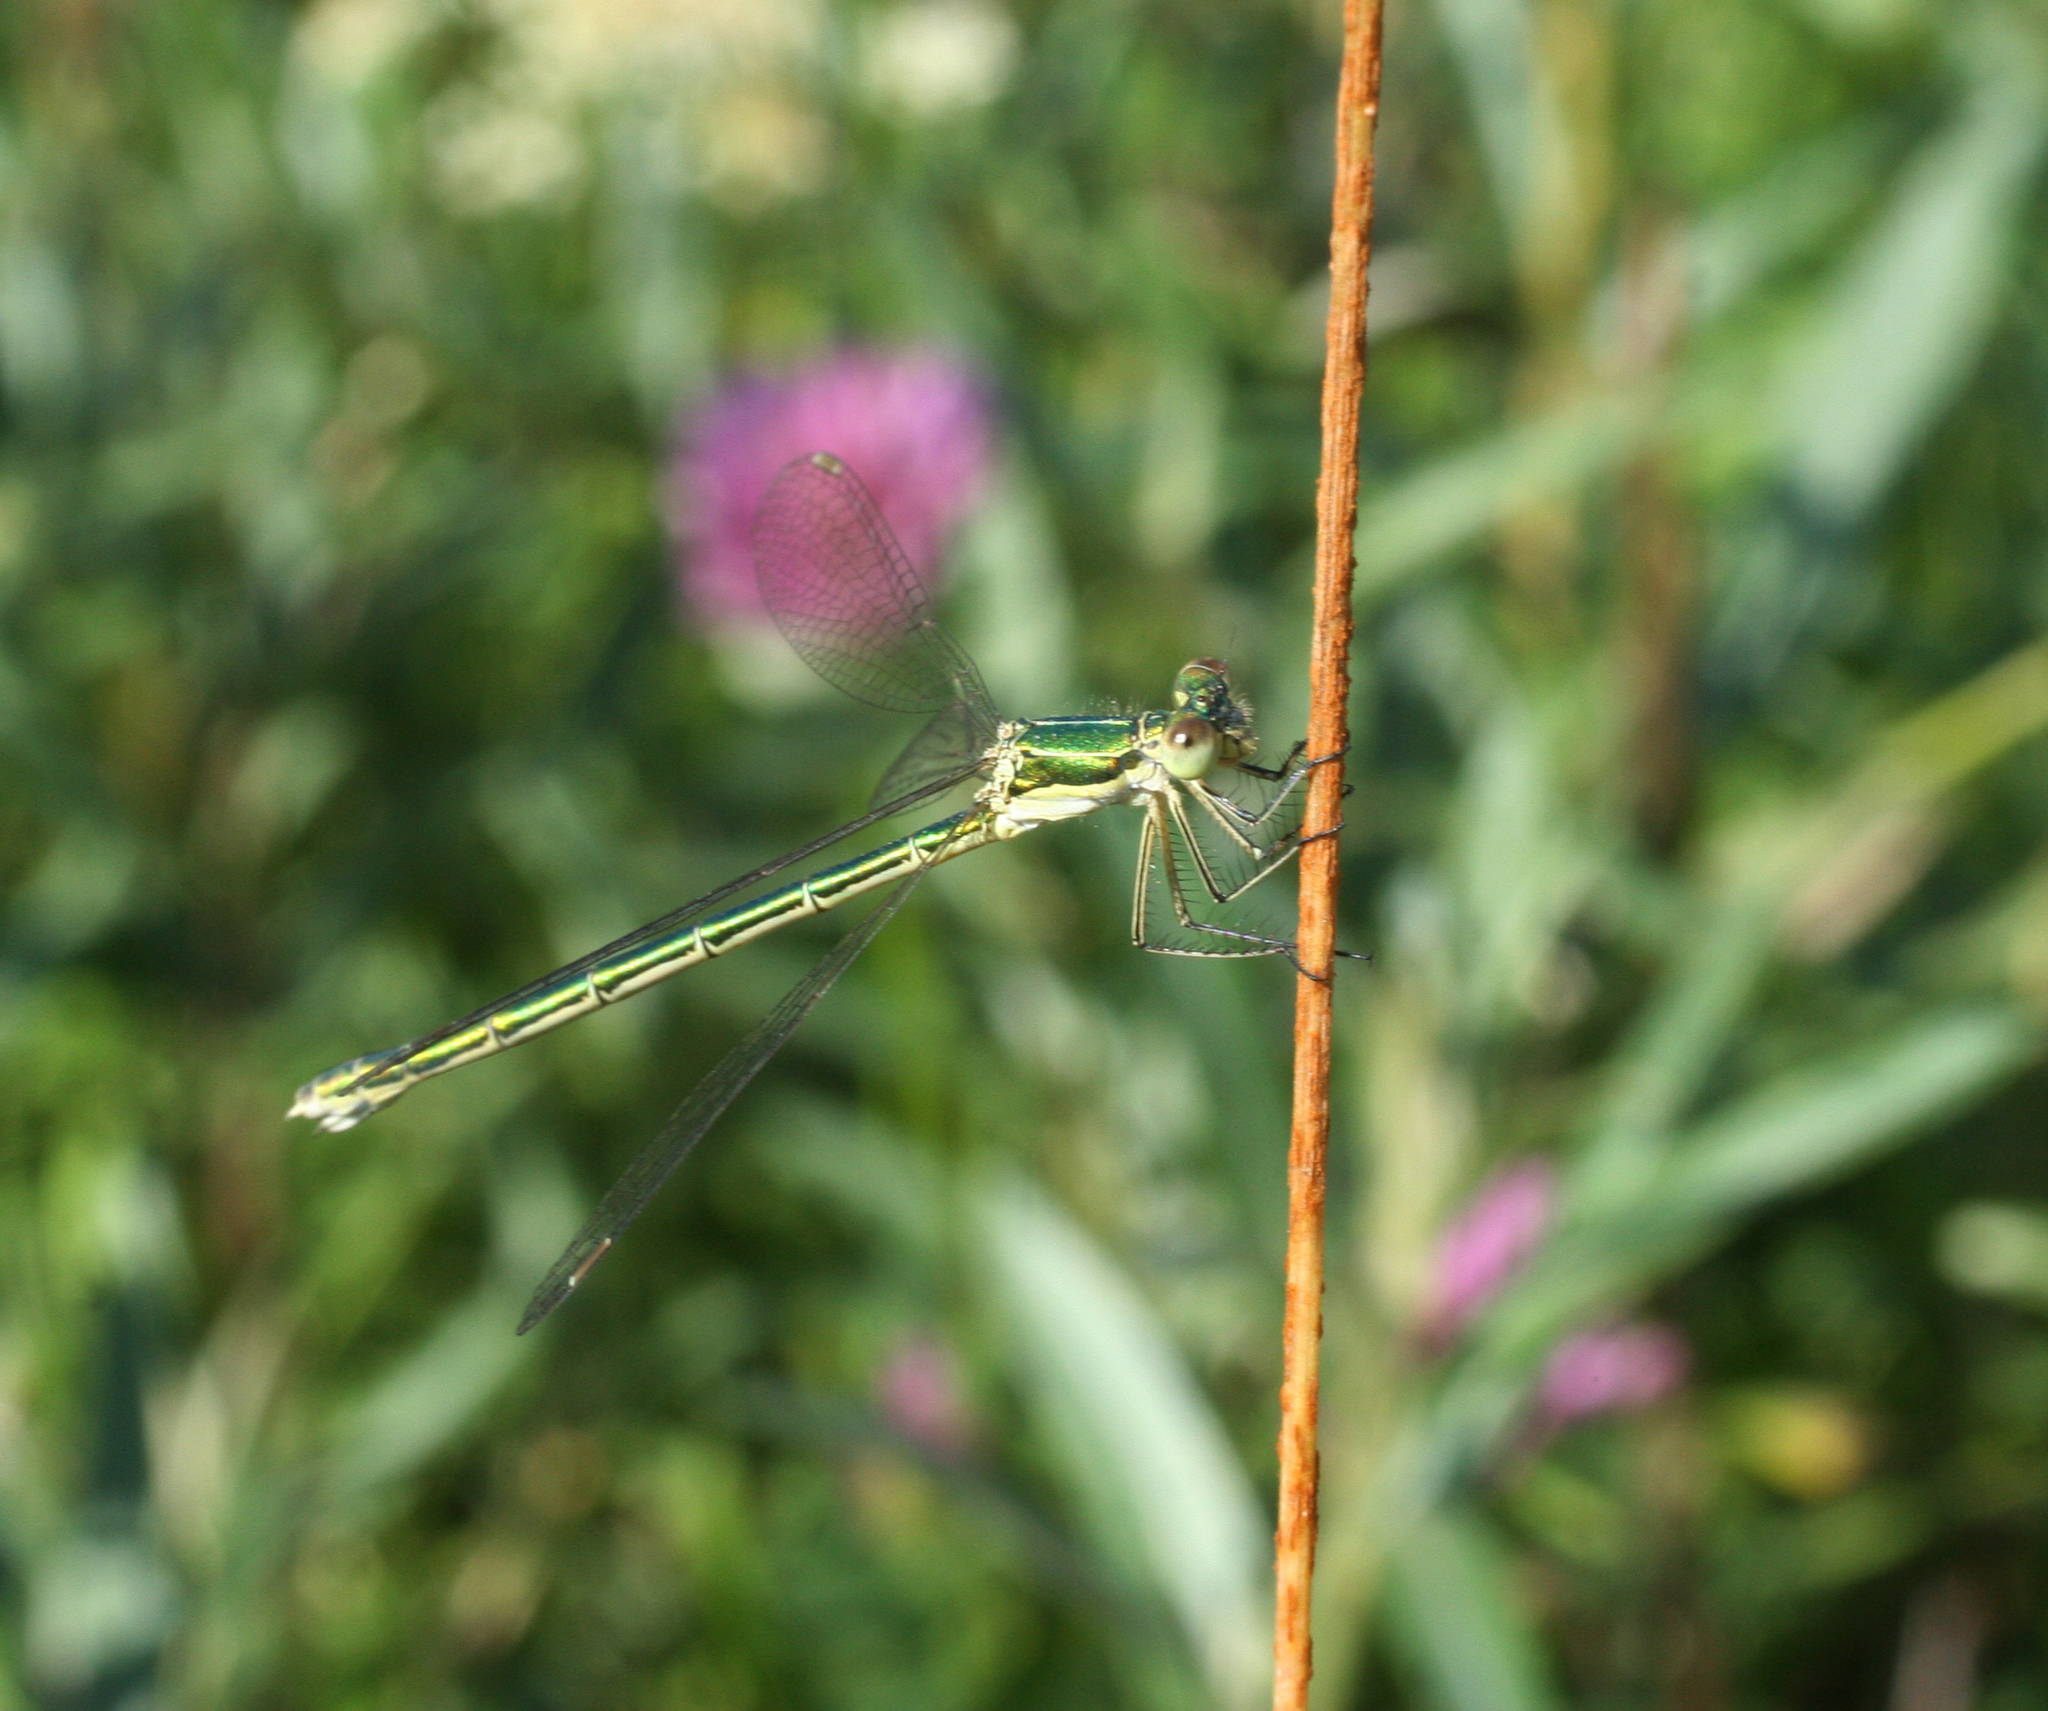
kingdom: Animalia
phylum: Arthropoda
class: Insecta
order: Odonata
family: Lestidae
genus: Lestes
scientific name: Lestes virens
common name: Small emerald spreadwing
